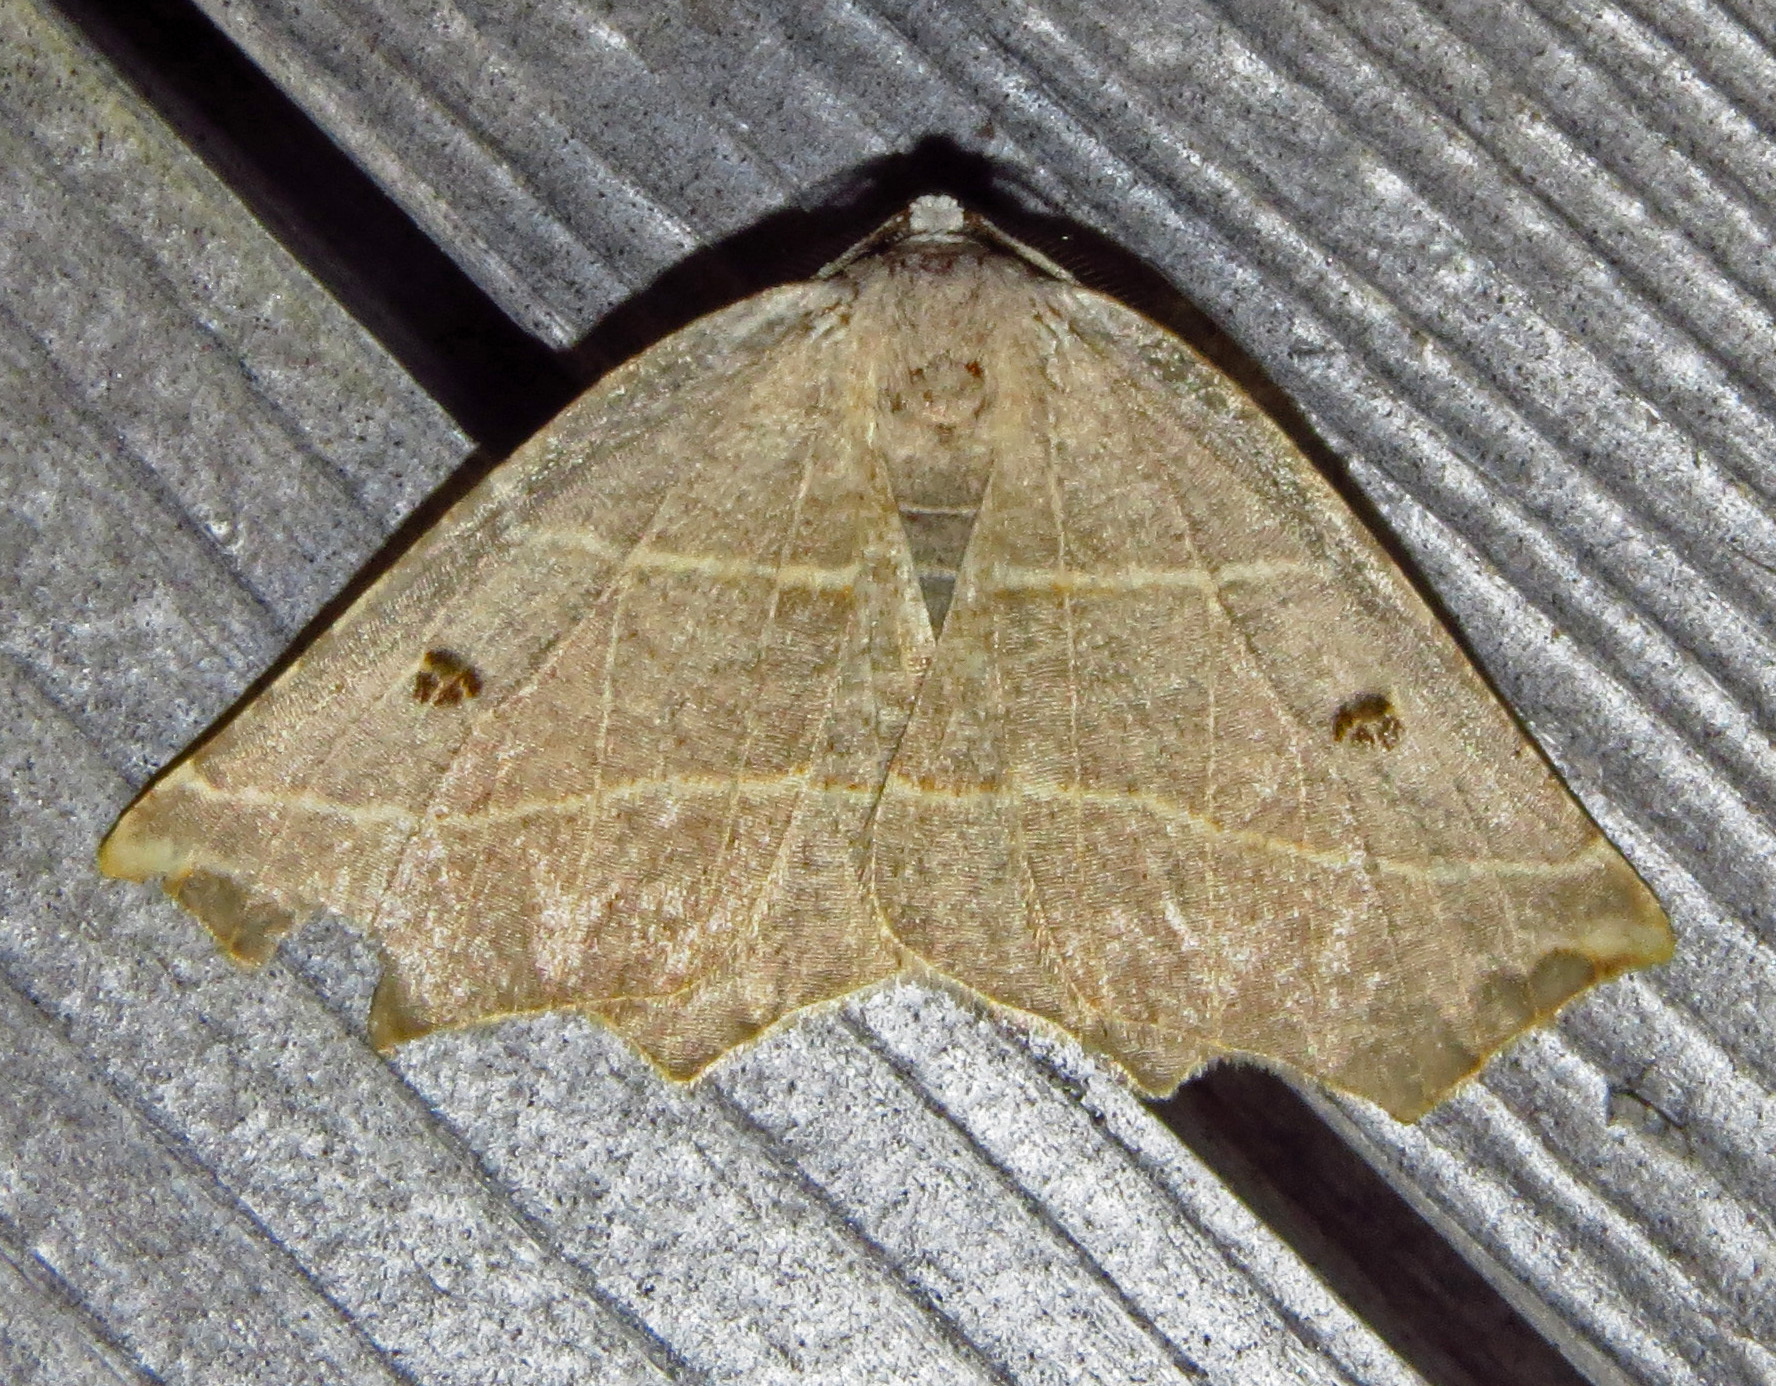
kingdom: Animalia
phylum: Arthropoda
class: Insecta
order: Lepidoptera
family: Geometridae
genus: Metanema
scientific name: Metanema inatomaria
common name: Pale metanema
